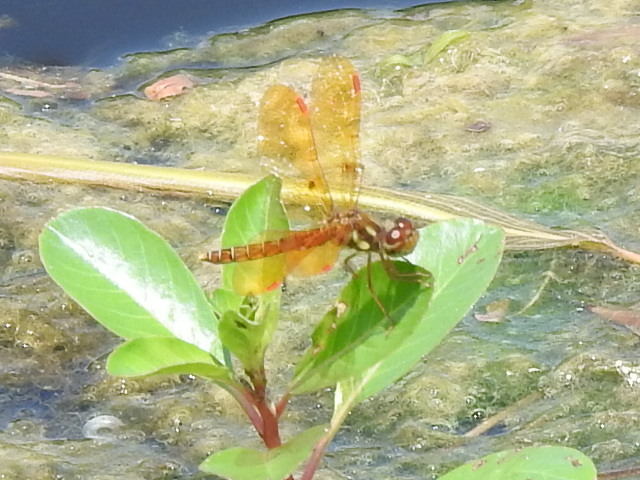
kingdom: Animalia
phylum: Arthropoda
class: Insecta
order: Odonata
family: Libellulidae
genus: Perithemis
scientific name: Perithemis tenera
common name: Eastern amberwing
